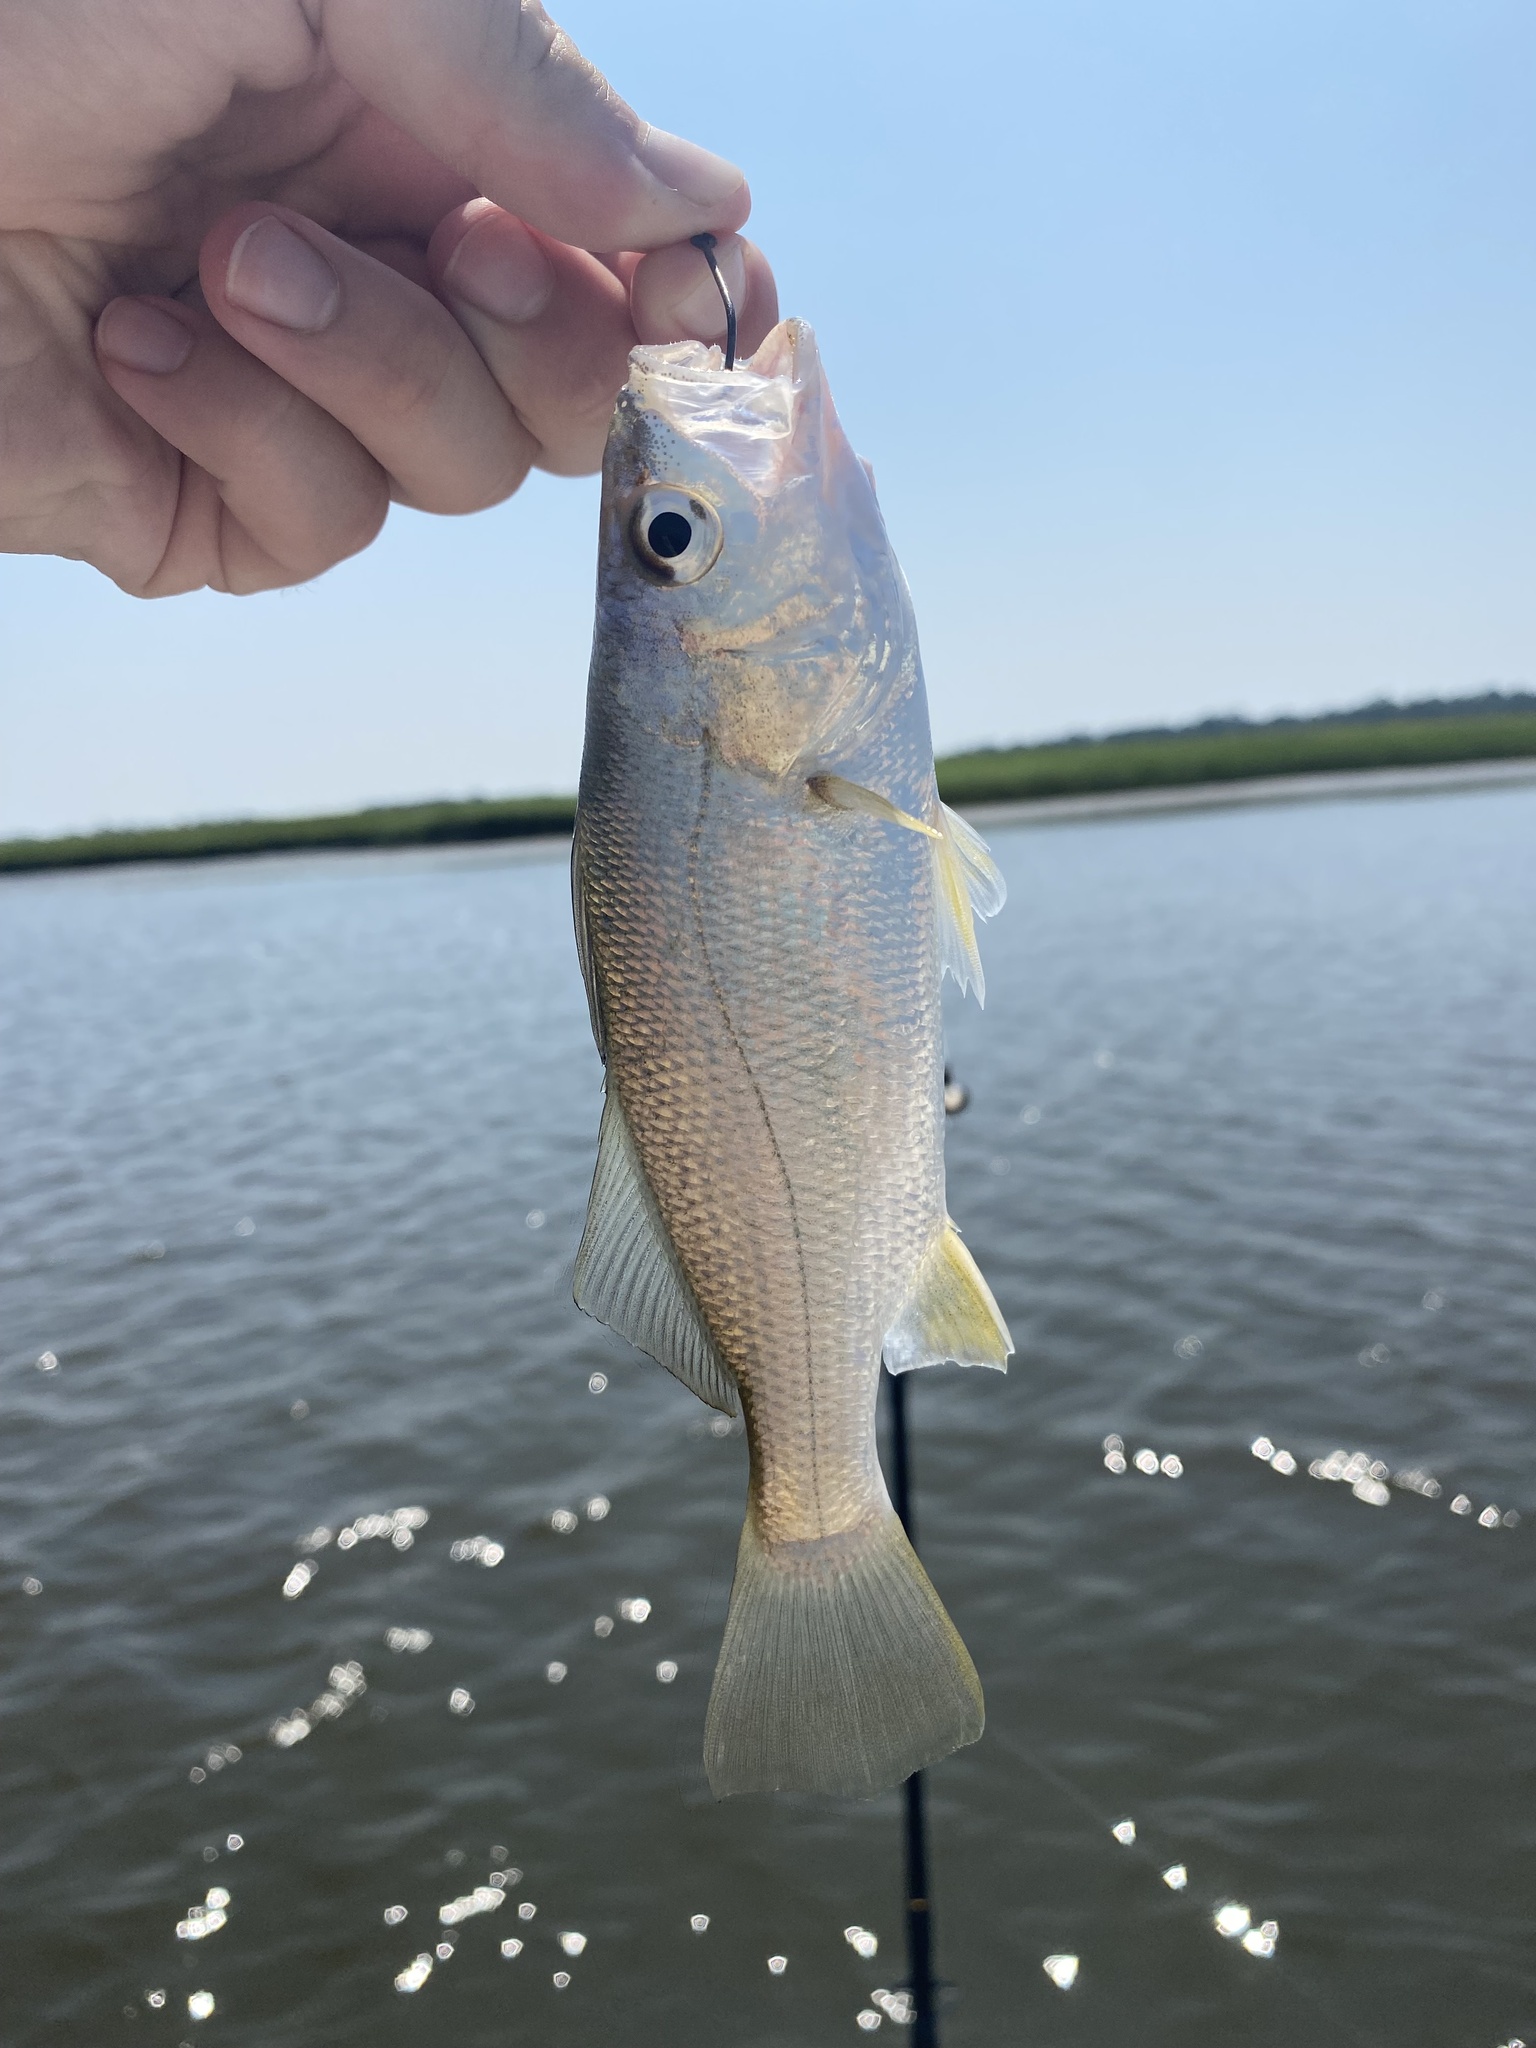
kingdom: Animalia
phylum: Chordata
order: Perciformes
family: Sciaenidae
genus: Bairdiella
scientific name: Bairdiella chrysoura
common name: Silver perch
